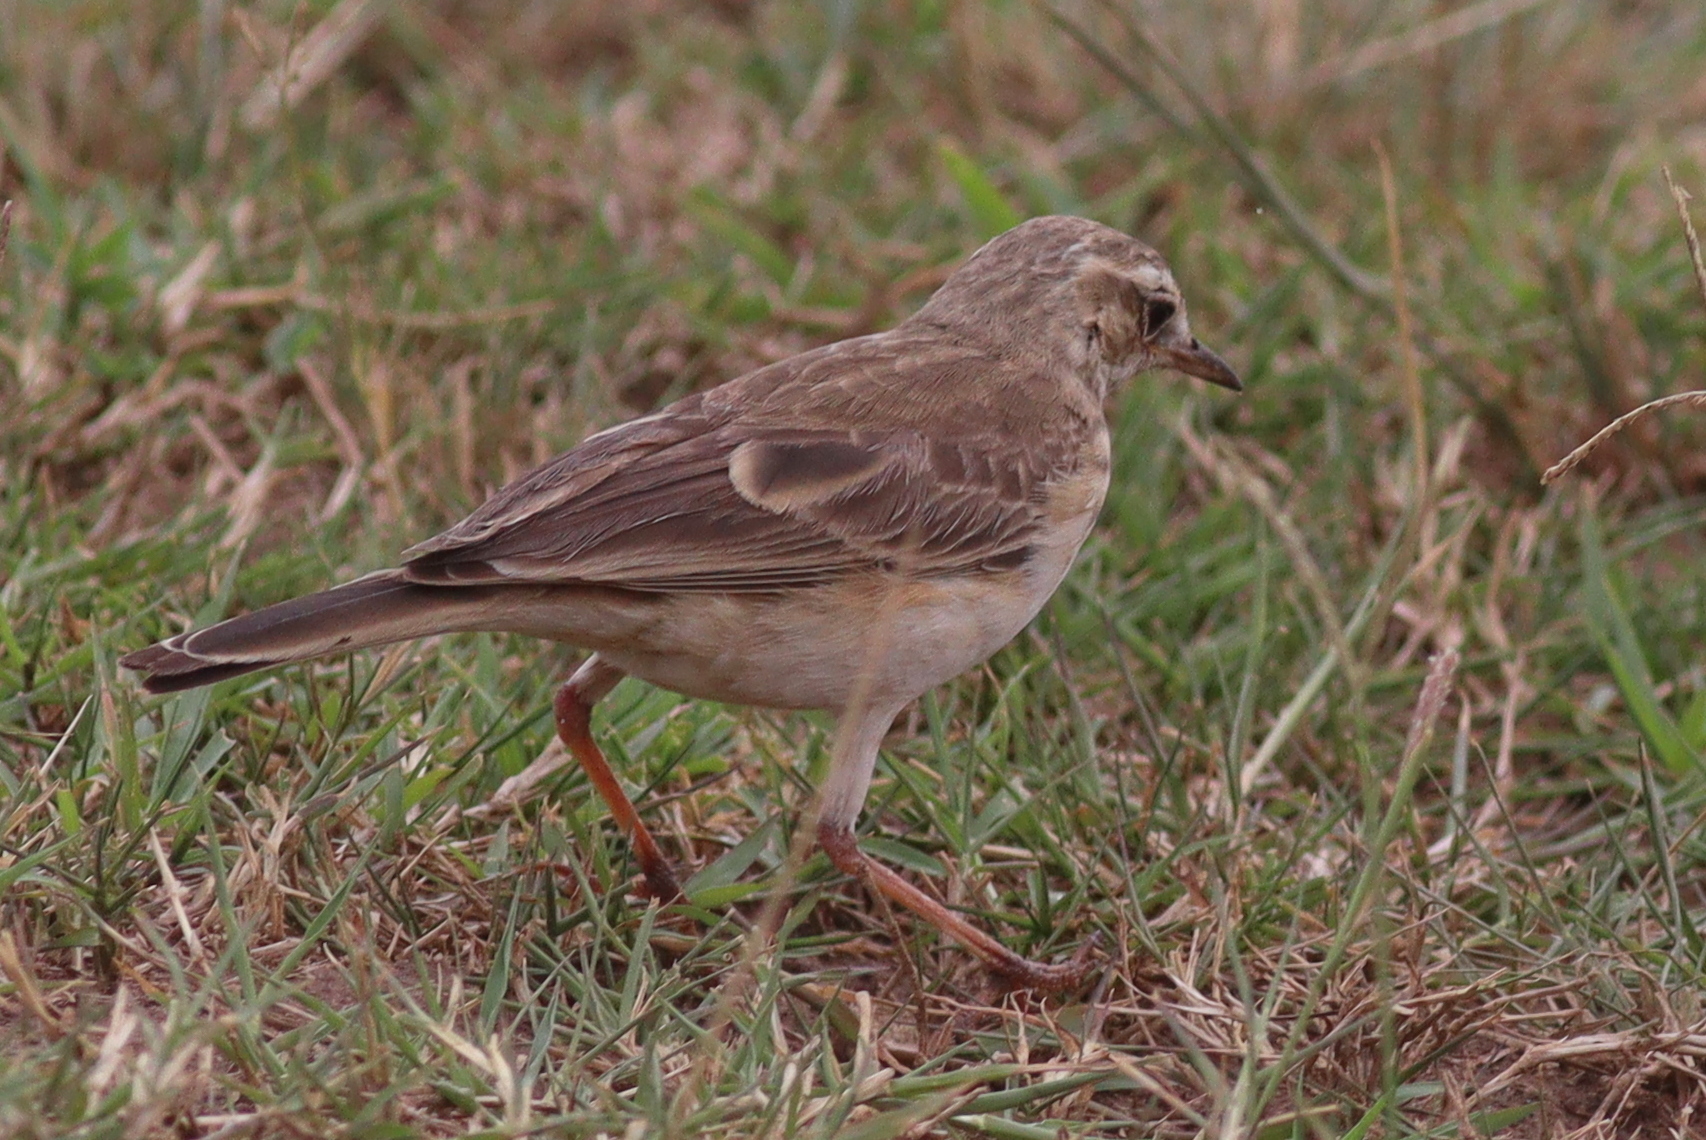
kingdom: Animalia
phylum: Chordata
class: Aves
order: Passeriformes
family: Motacillidae
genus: Anthus
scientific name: Anthus leucophrys
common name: Plain-backed pipit
